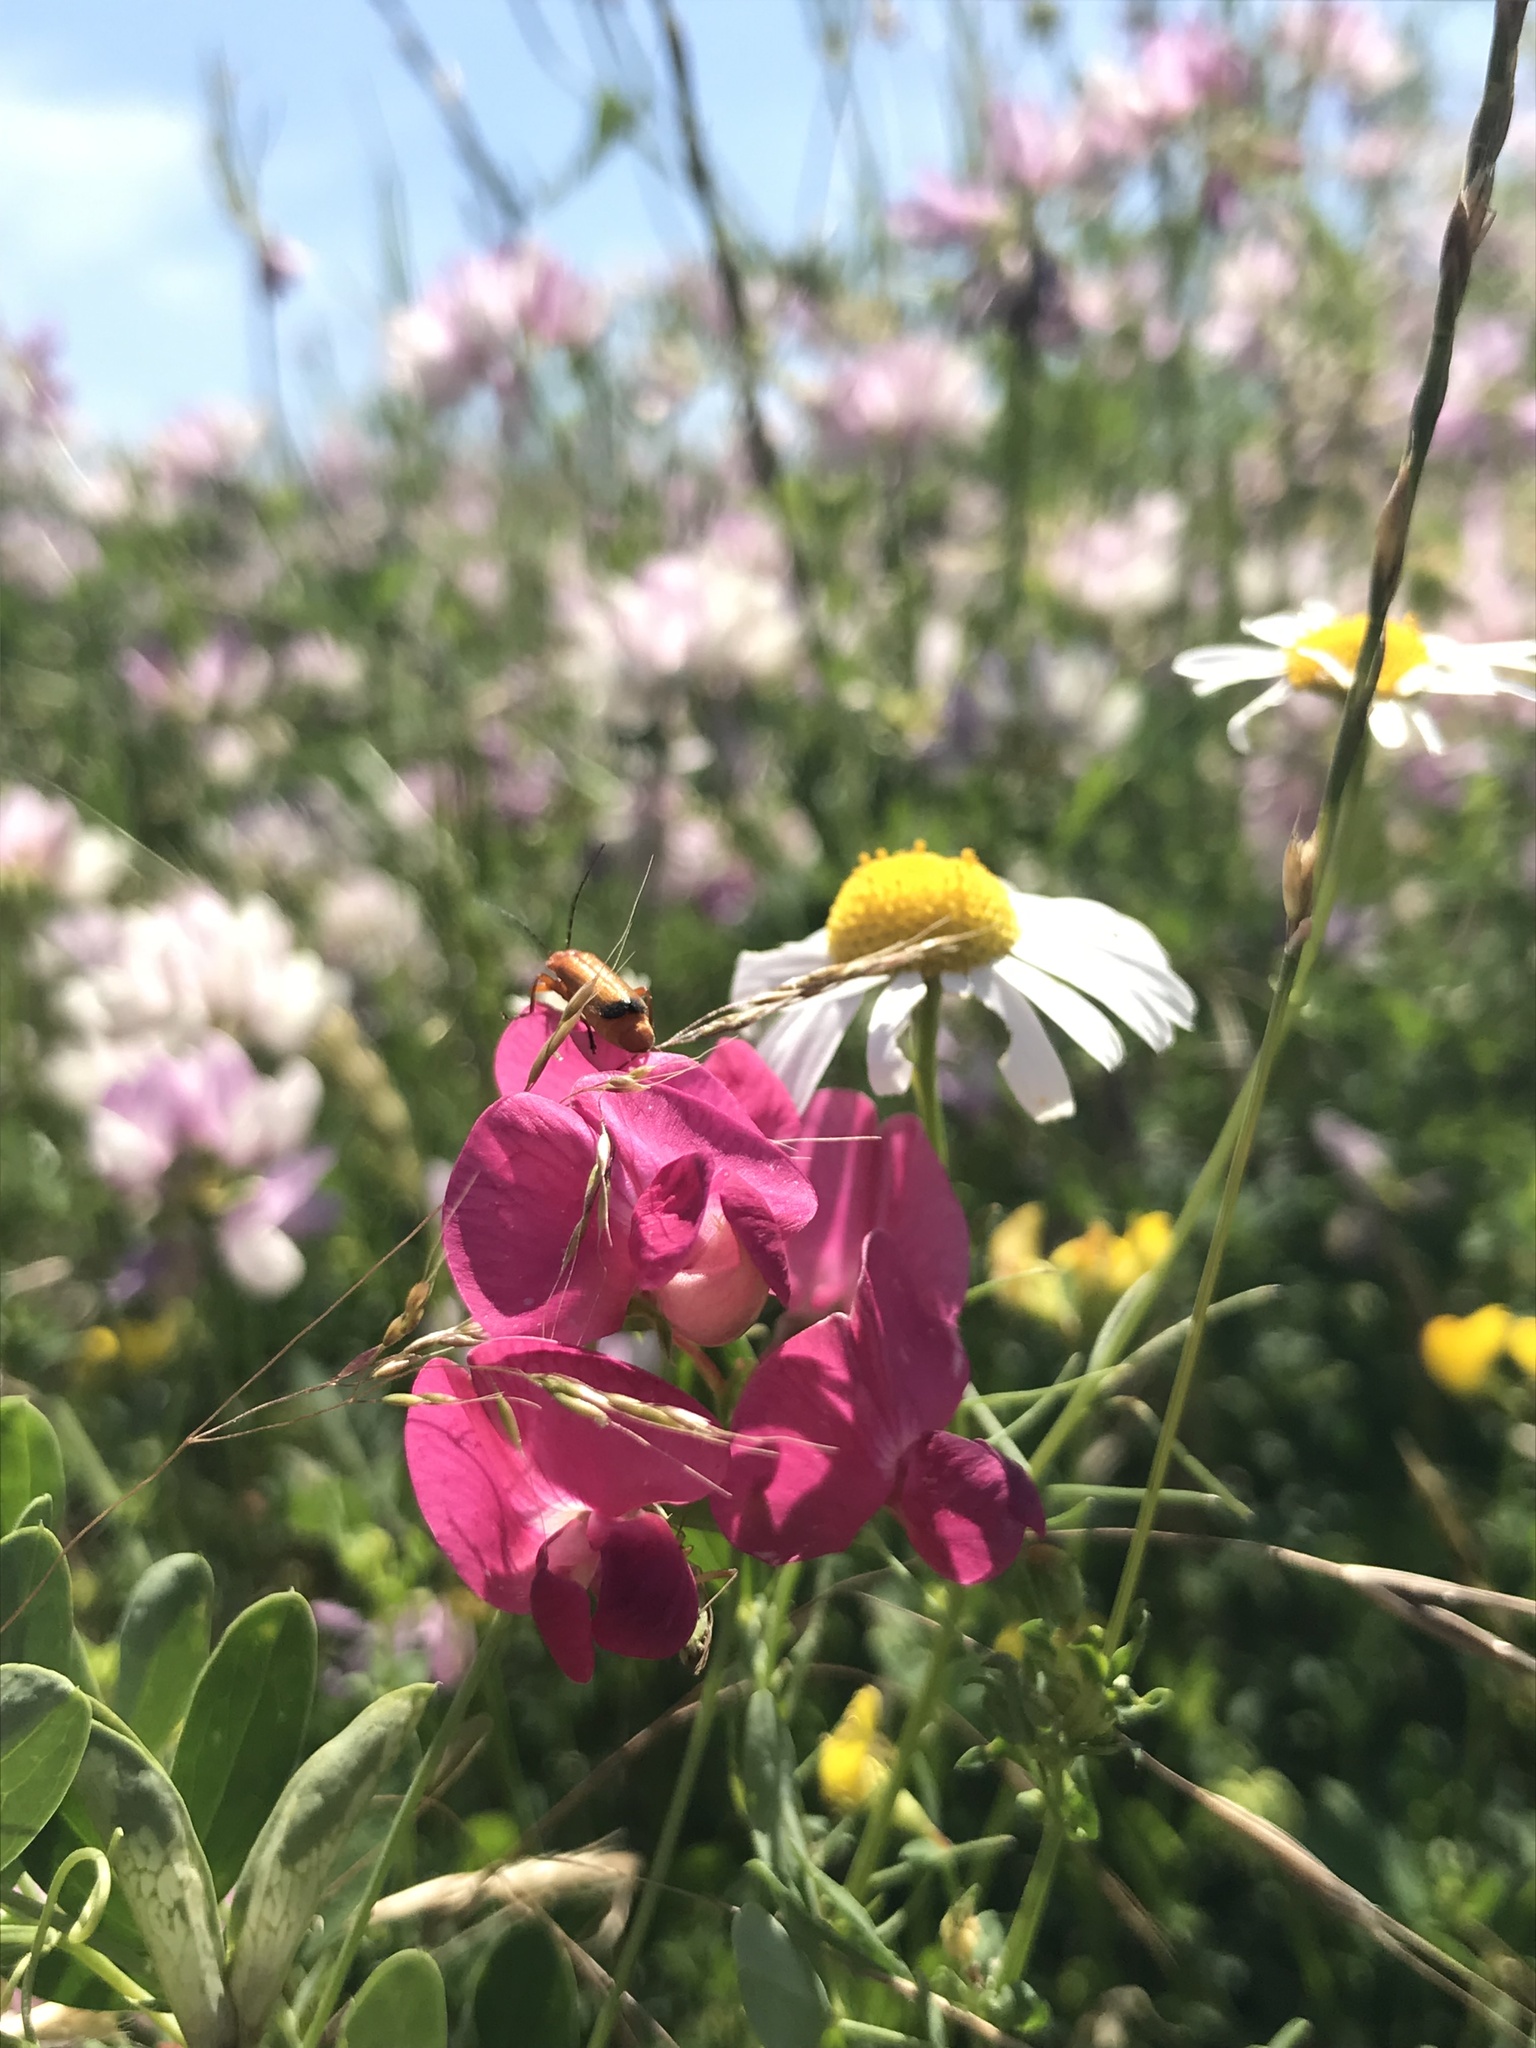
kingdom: Plantae
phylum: Tracheophyta
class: Magnoliopsida
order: Fabales
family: Fabaceae
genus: Lathyrus
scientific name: Lathyrus tuberosus
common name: Tuberous pea
